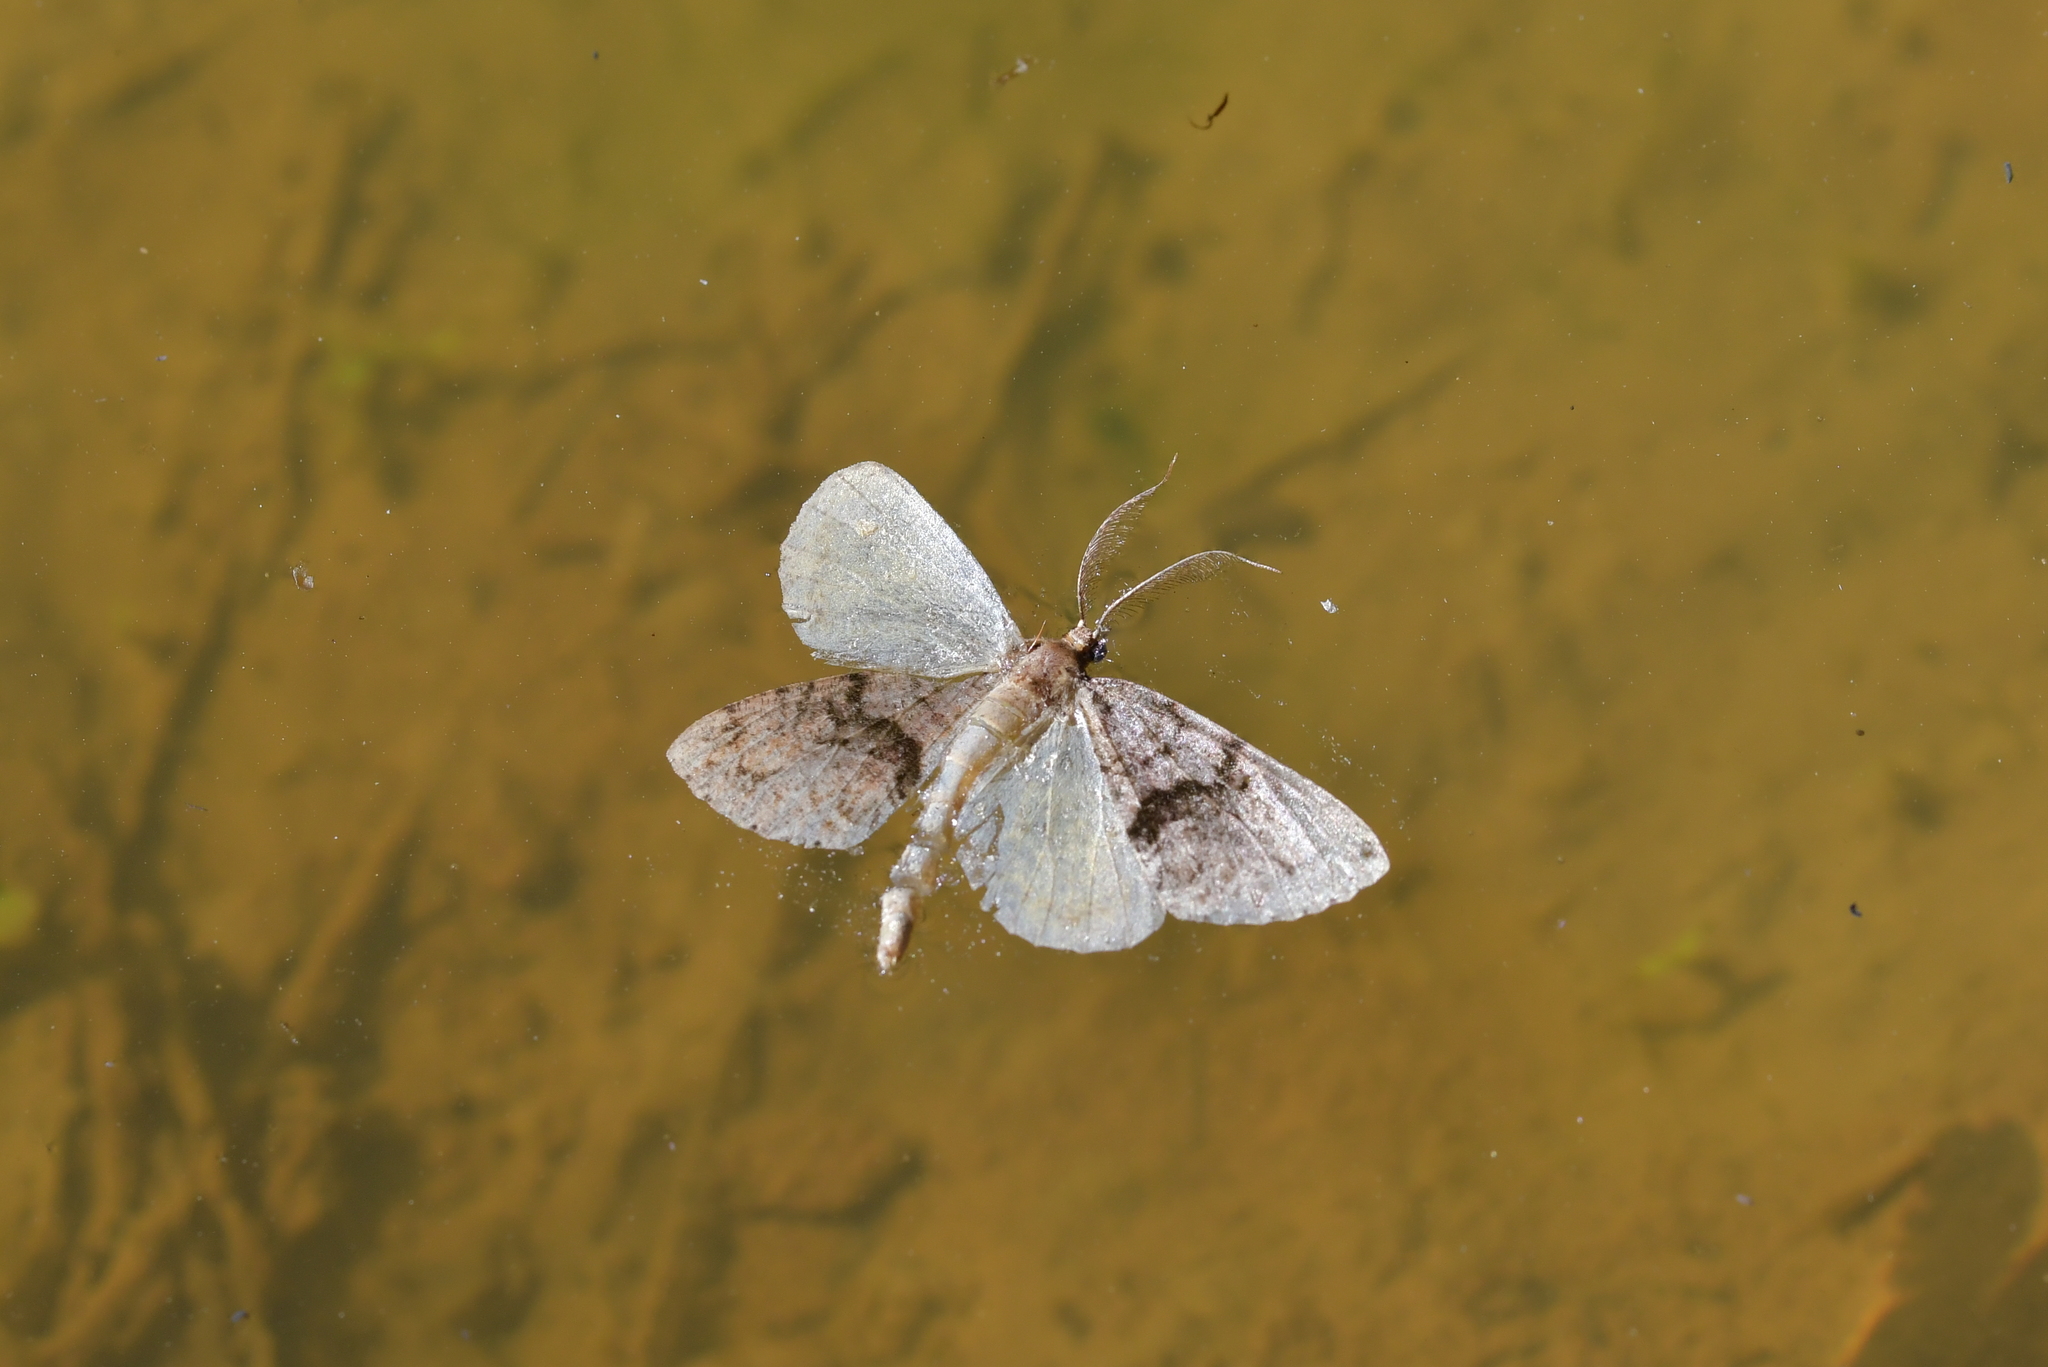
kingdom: Animalia
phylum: Arthropoda
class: Insecta
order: Lepidoptera
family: Geometridae
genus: Pseudocoremia
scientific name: Pseudocoremia suavis
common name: Common forest looper
